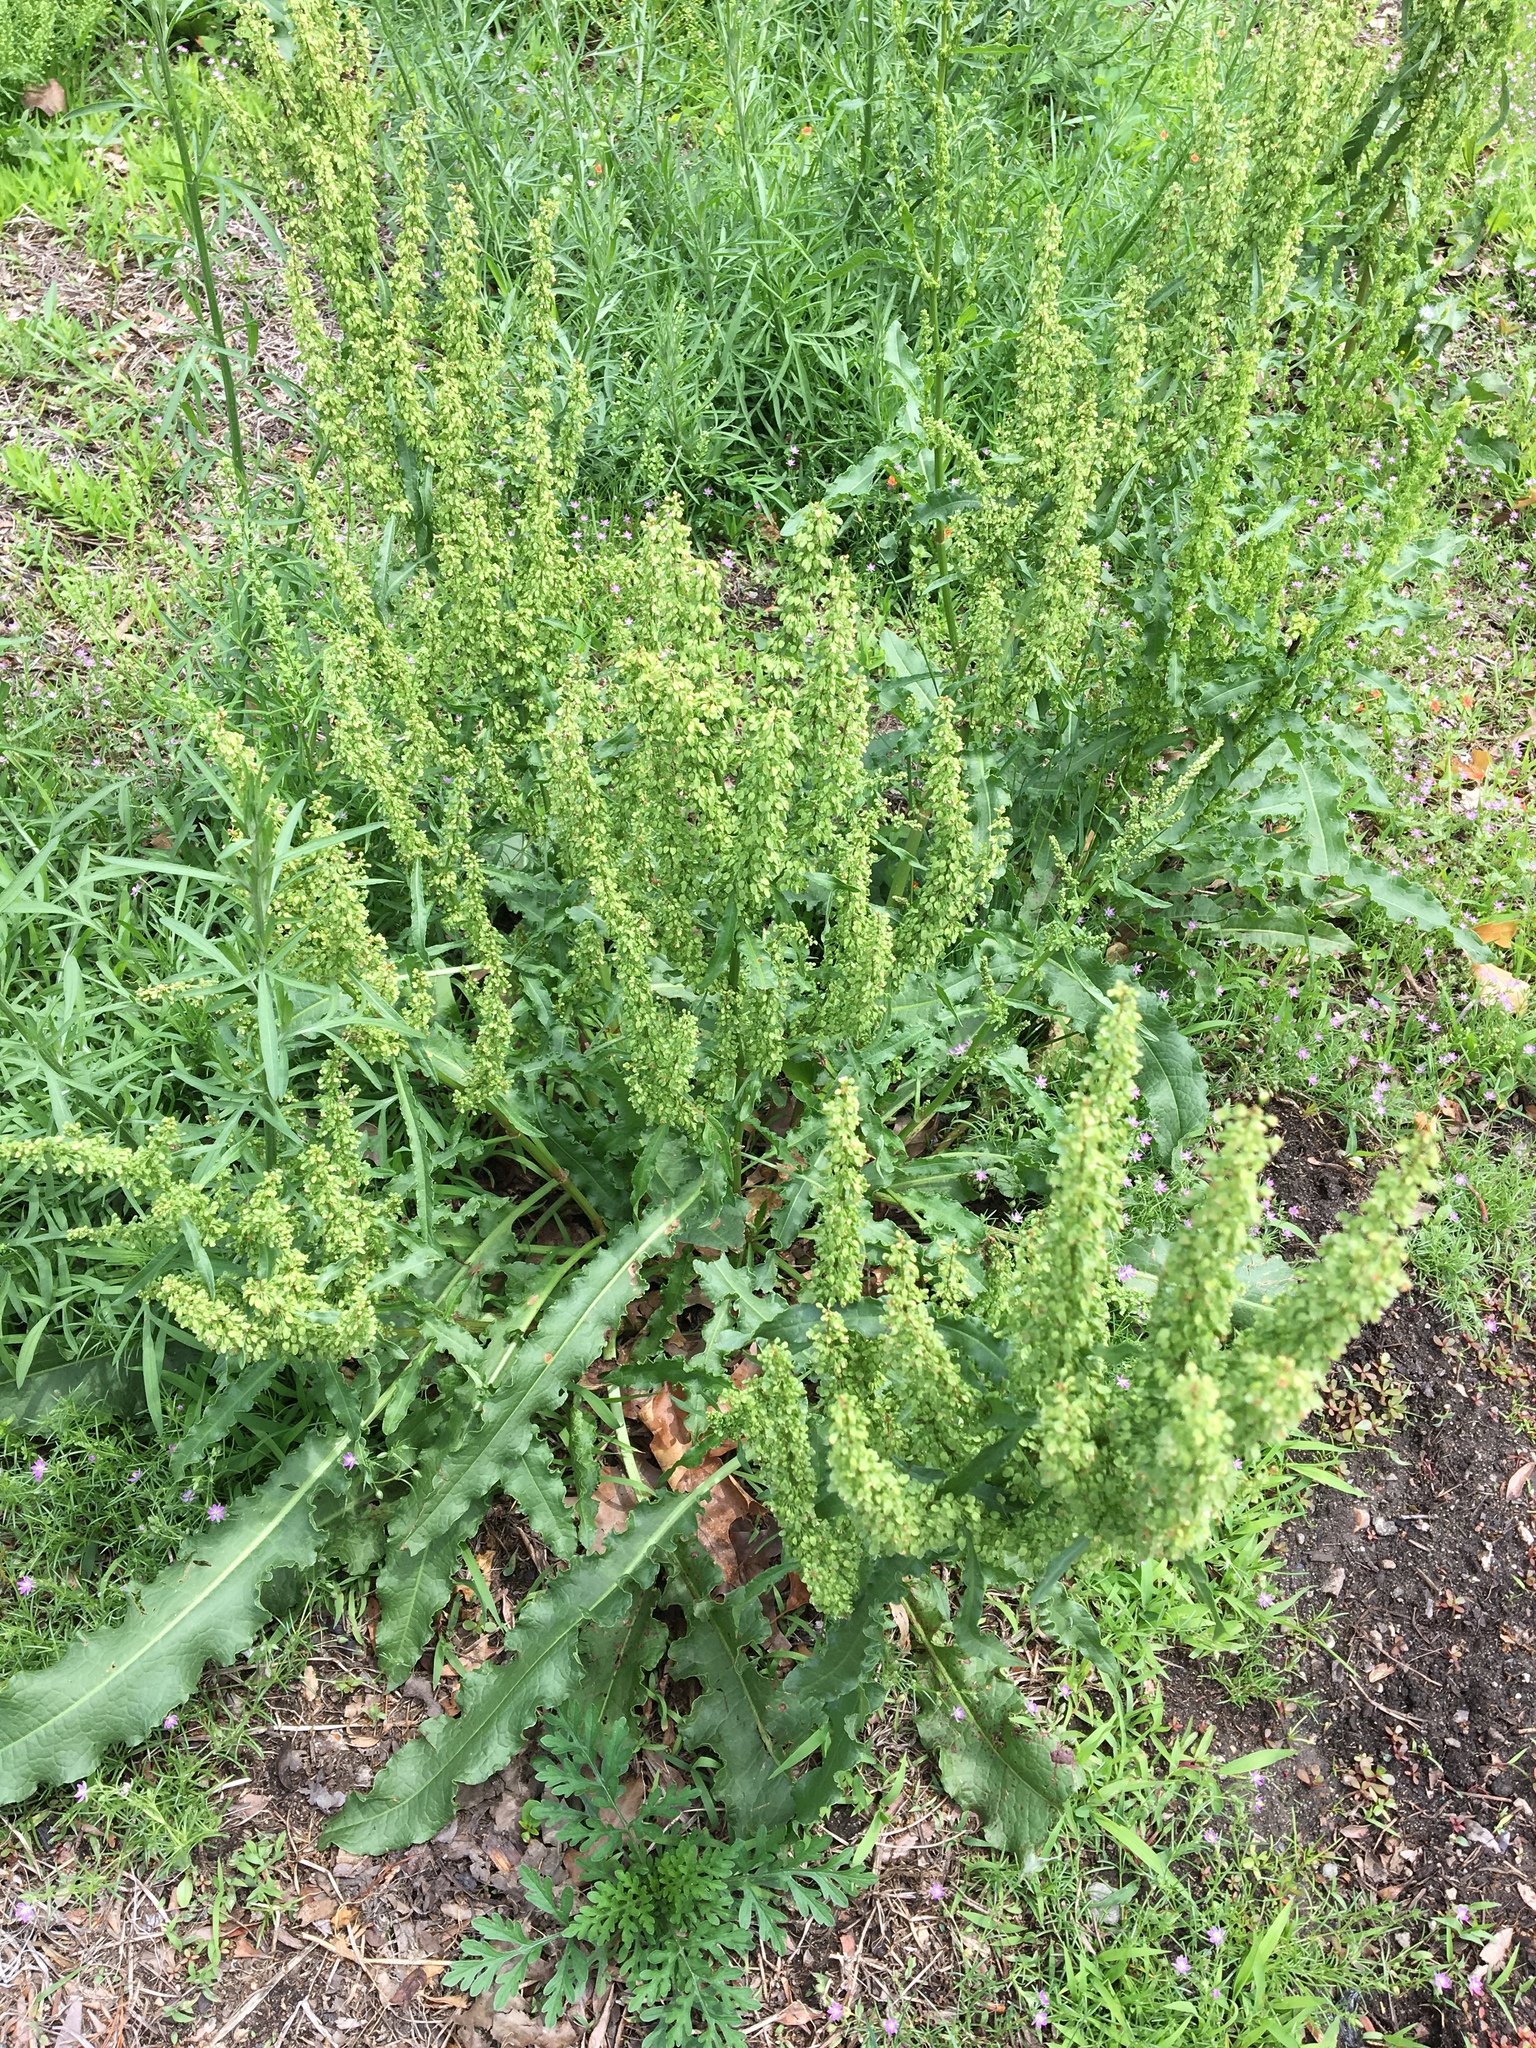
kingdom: Plantae
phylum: Tracheophyta
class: Magnoliopsida
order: Caryophyllales
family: Polygonaceae
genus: Rumex
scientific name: Rumex crispus
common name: Curled dock
